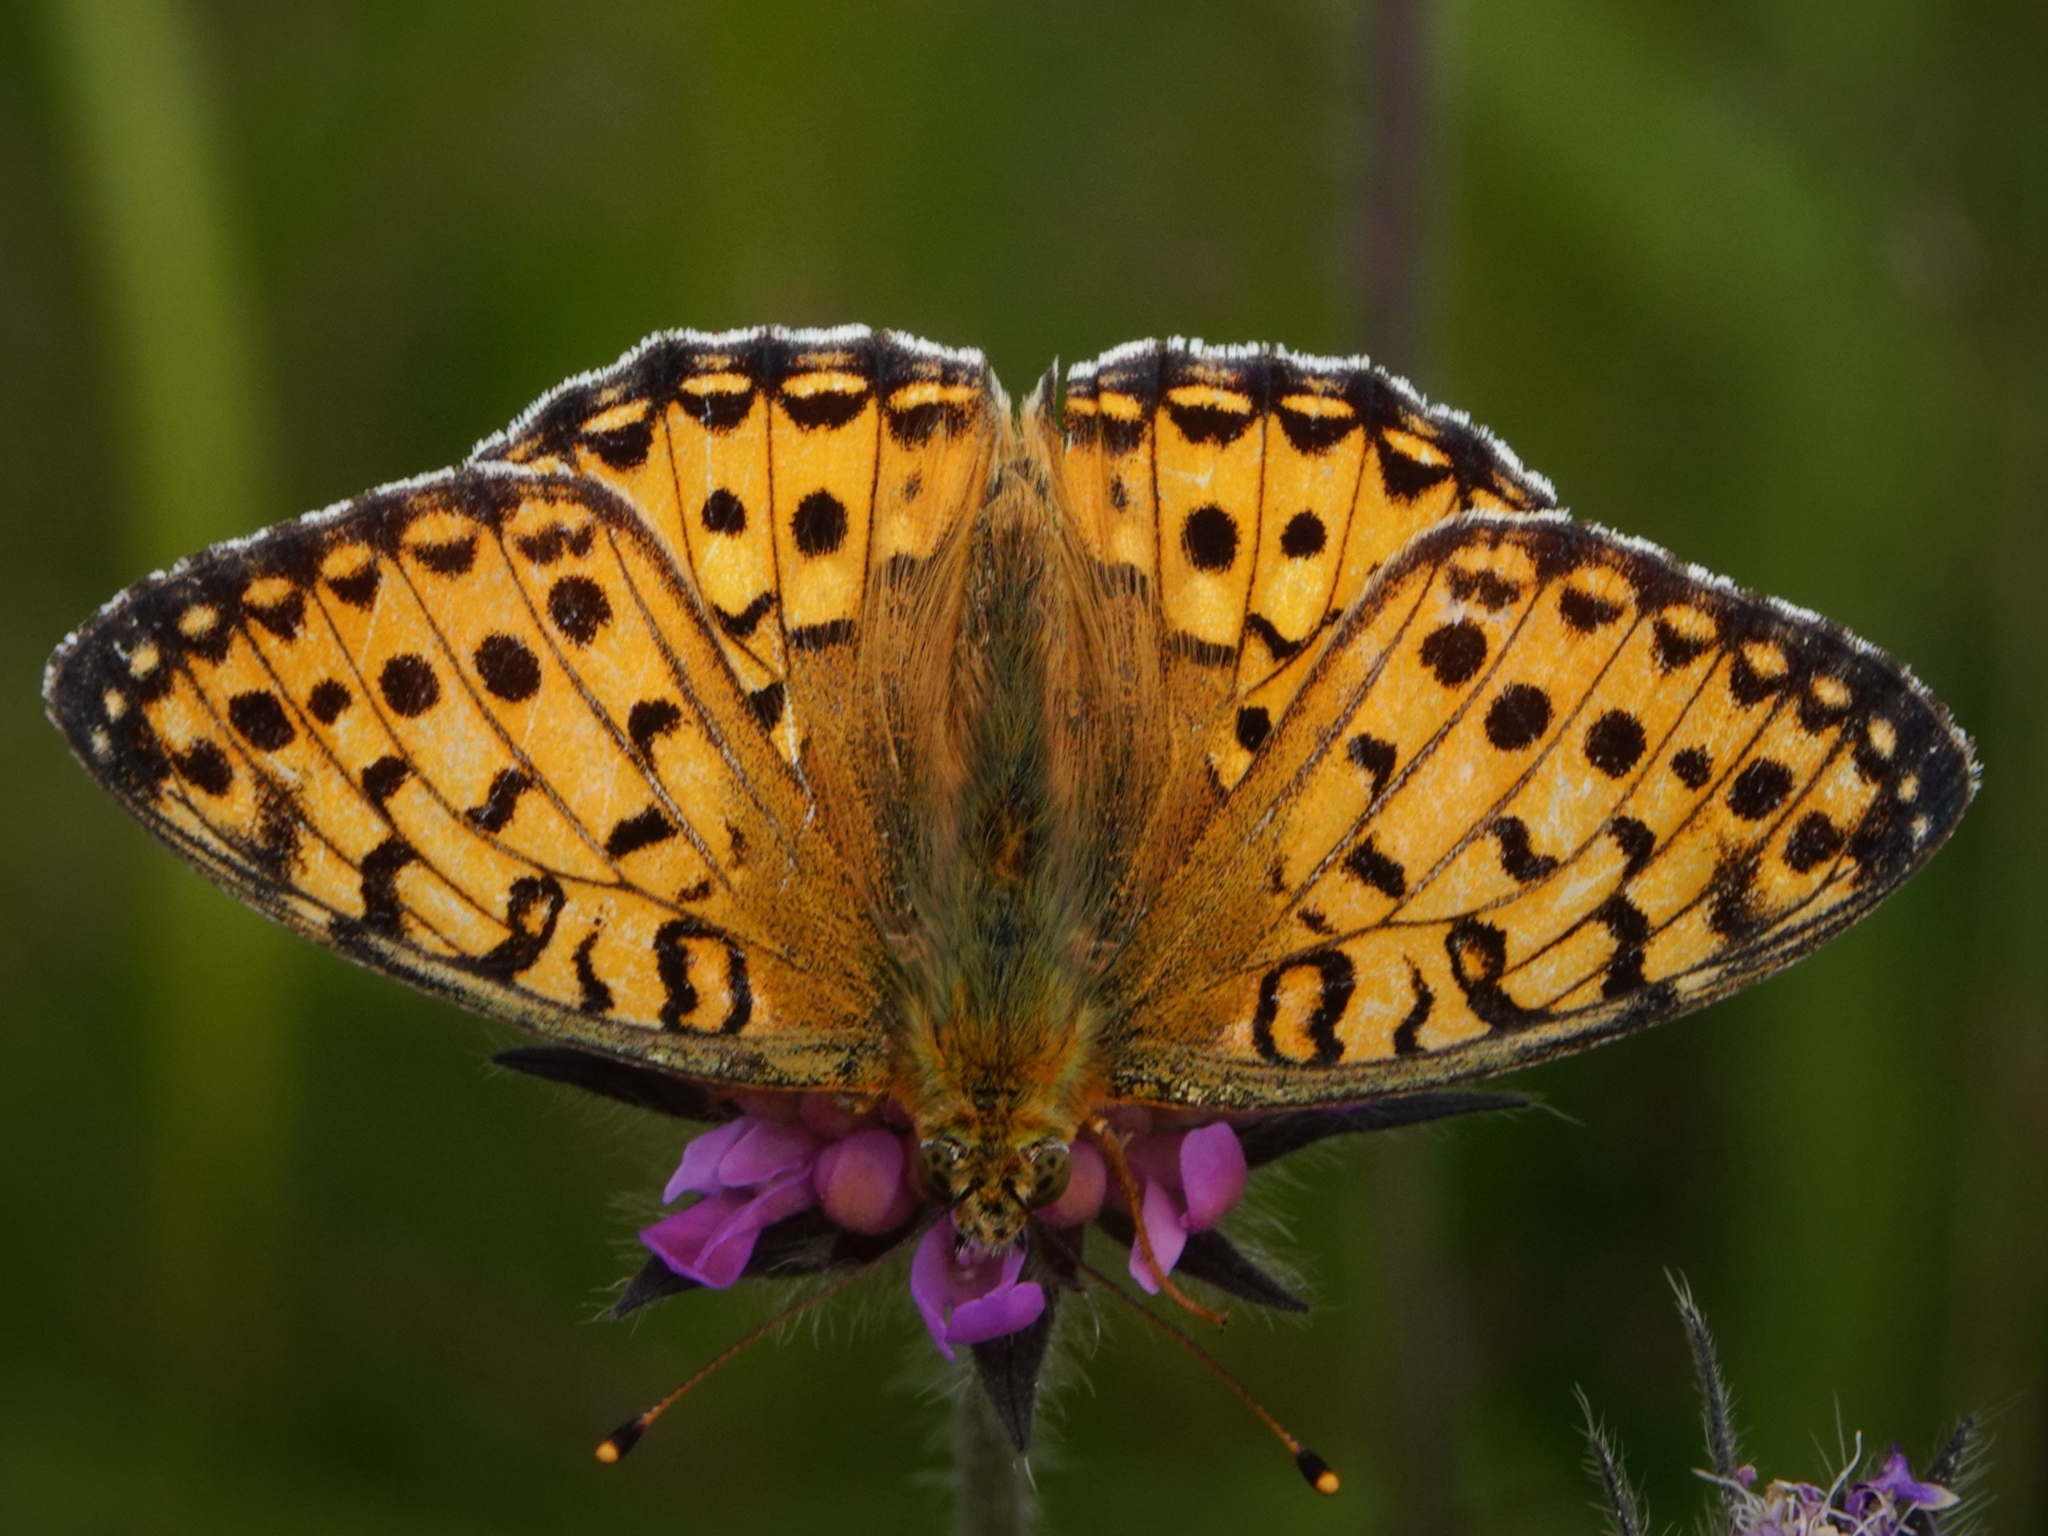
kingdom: Animalia
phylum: Arthropoda
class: Insecta
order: Lepidoptera
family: Nymphalidae
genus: Speyeria
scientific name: Speyeria aglaja
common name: Dark green fritillary
